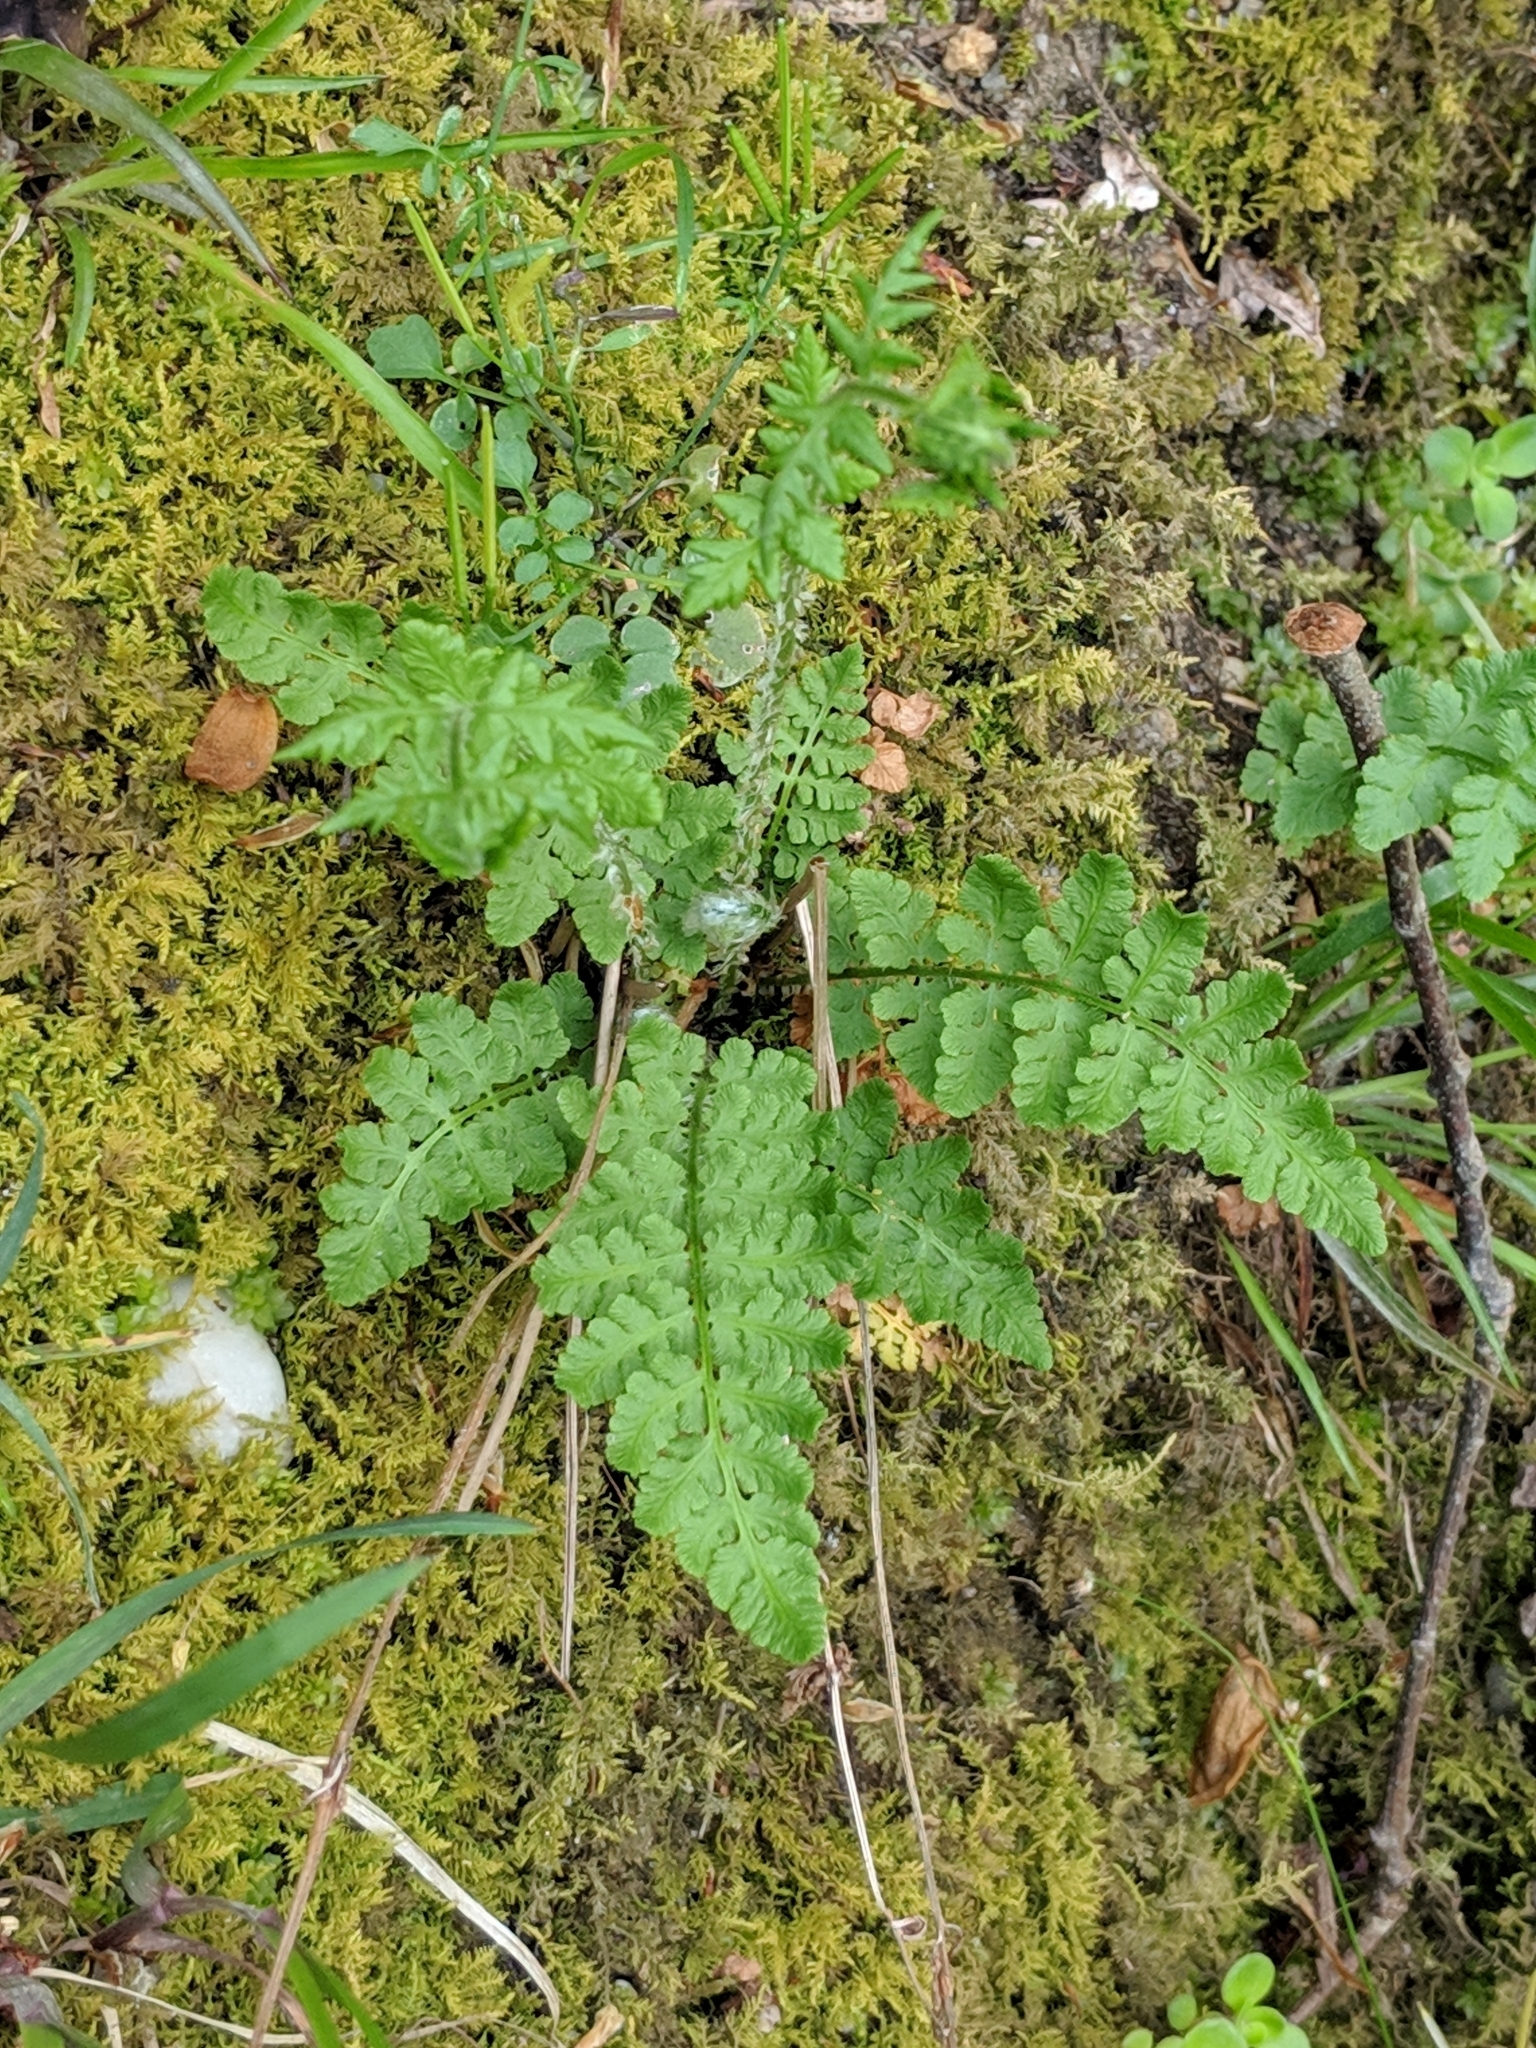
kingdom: Plantae
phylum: Tracheophyta
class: Polypodiopsida
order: Polypodiales
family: Woodsiaceae
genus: Physematium
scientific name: Physematium obtusum
